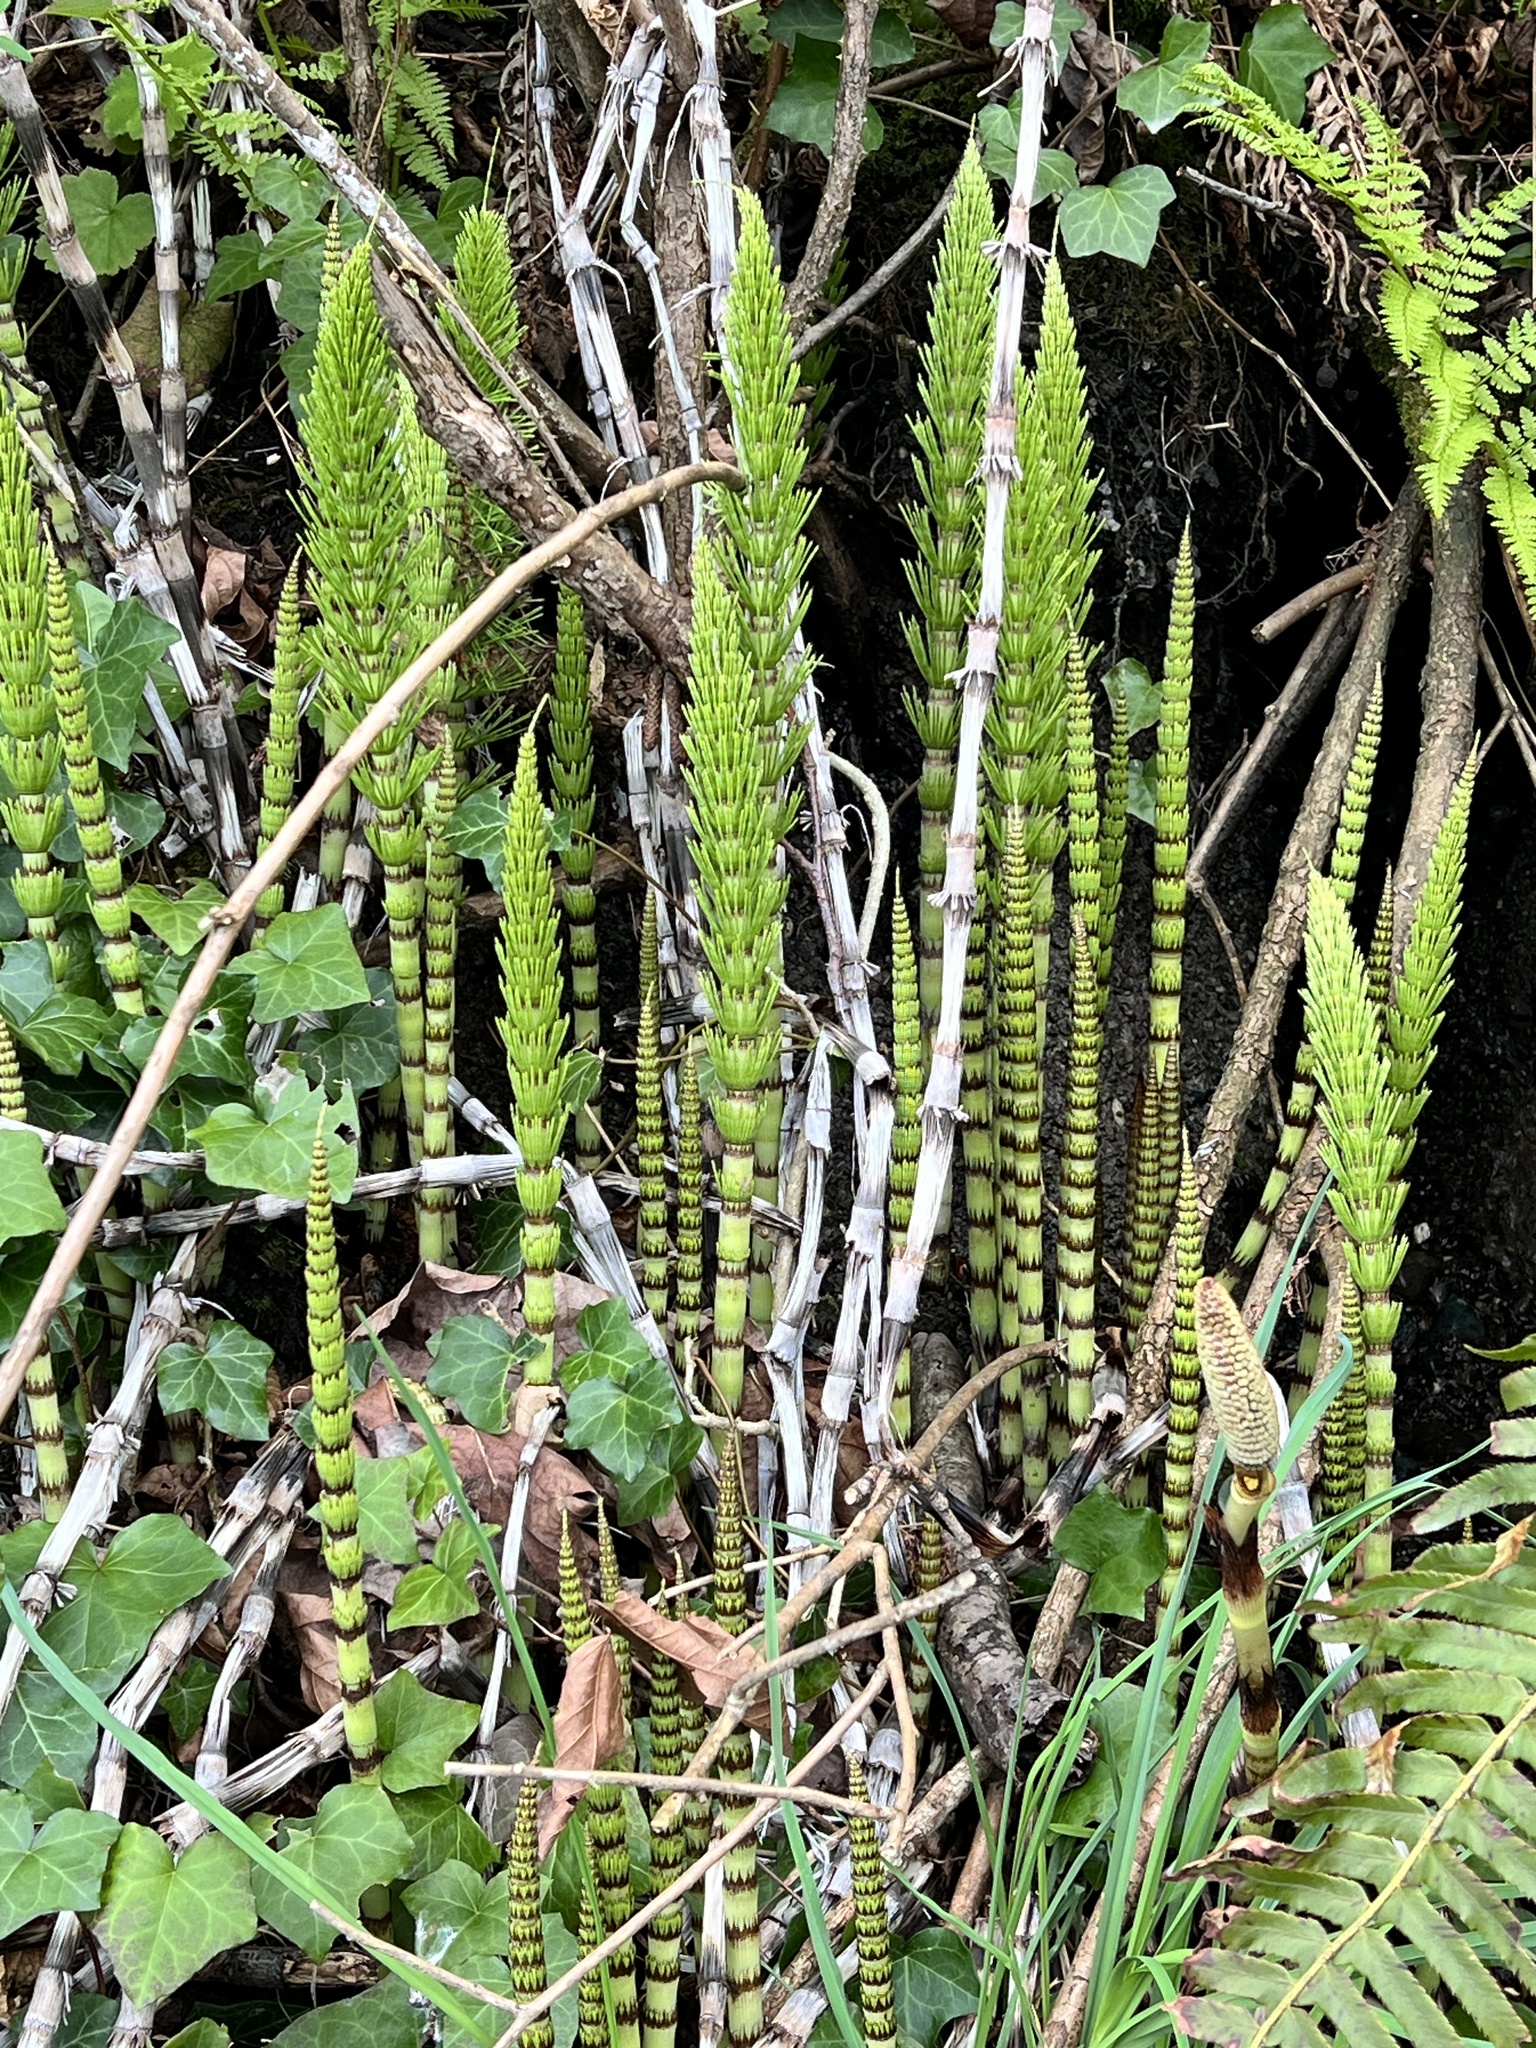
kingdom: Plantae
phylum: Tracheophyta
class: Polypodiopsida
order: Equisetales
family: Equisetaceae
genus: Equisetum
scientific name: Equisetum telmateia
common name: Great horsetail
